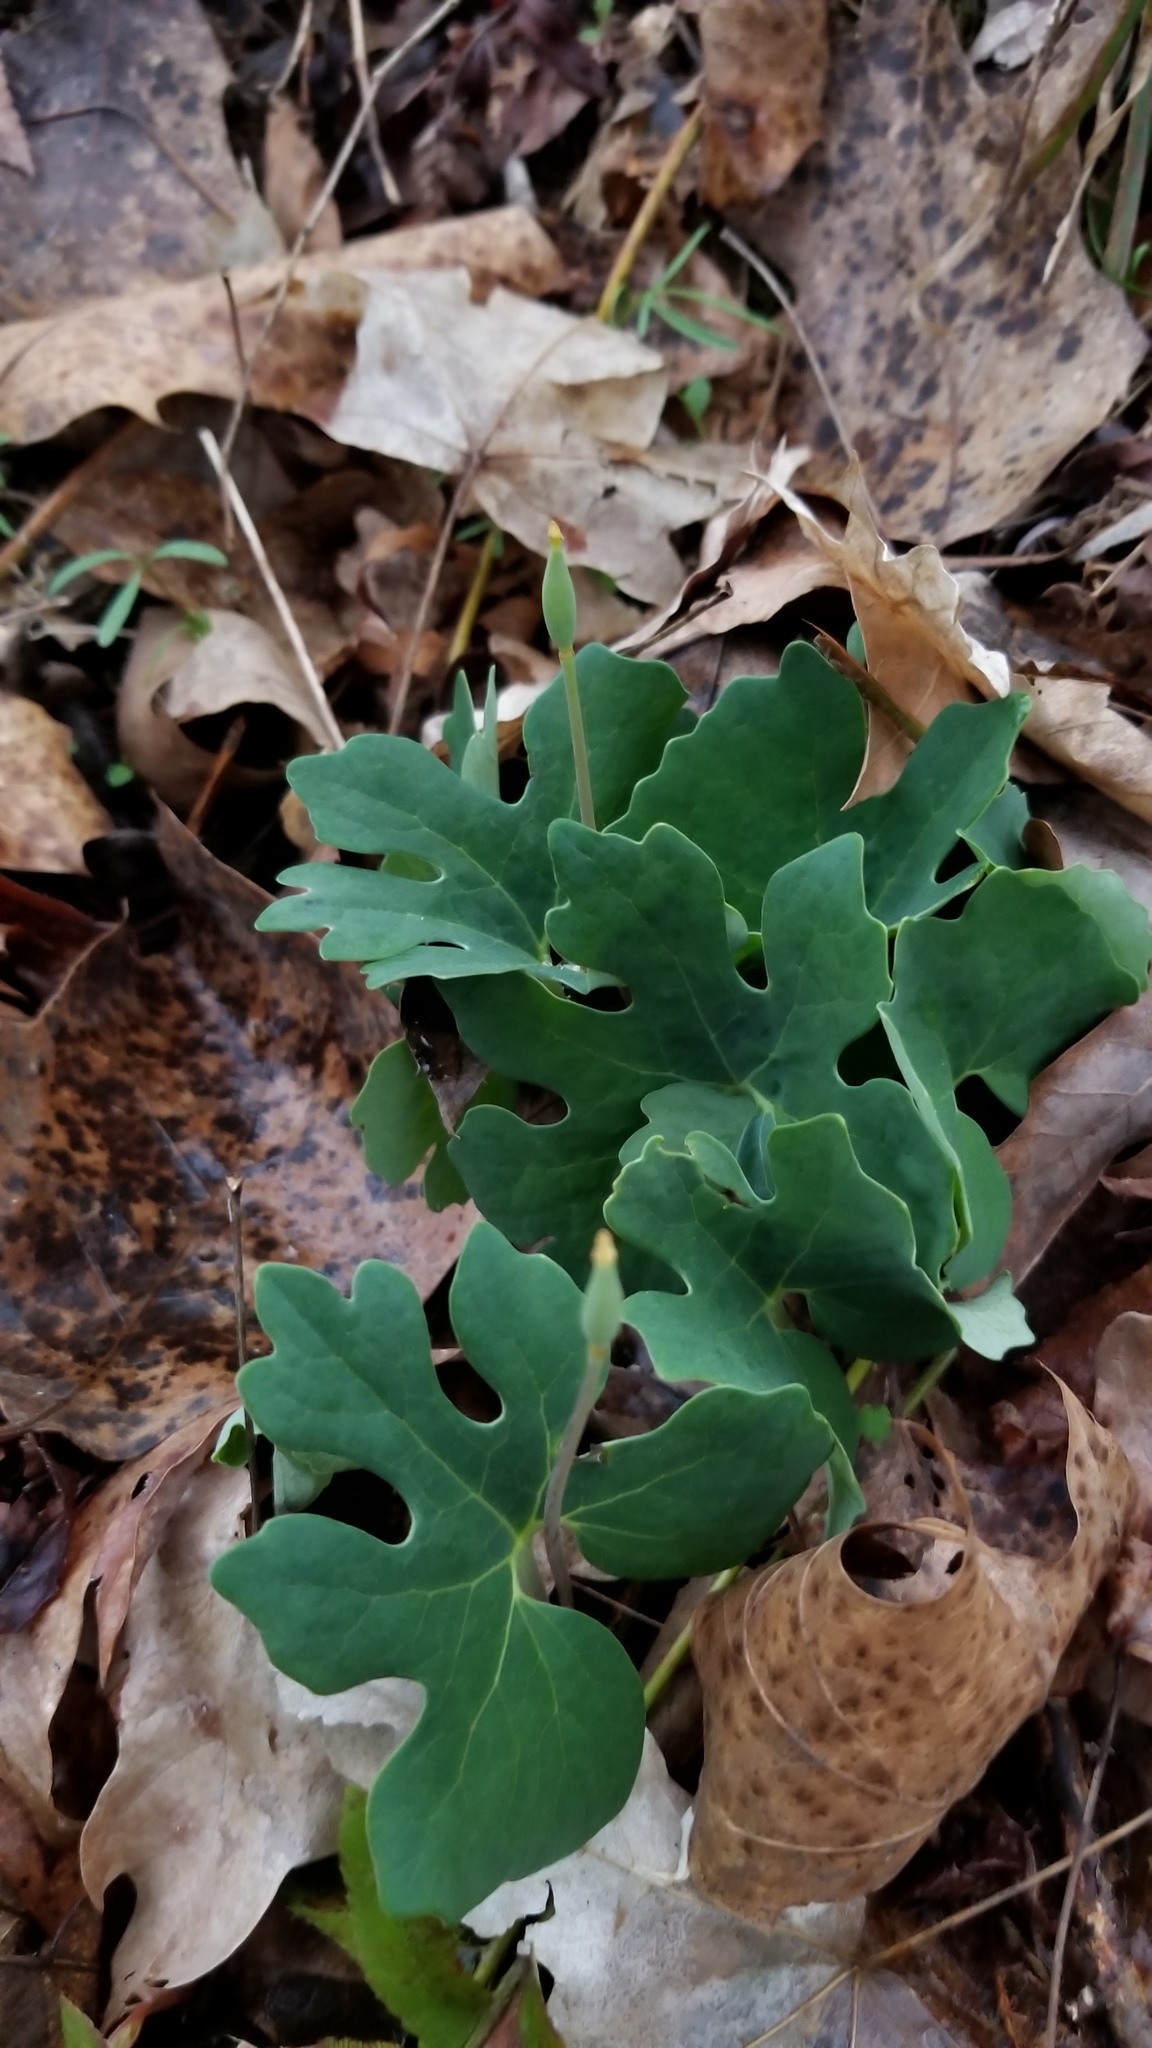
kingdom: Plantae
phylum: Tracheophyta
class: Magnoliopsida
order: Ranunculales
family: Papaveraceae
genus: Sanguinaria
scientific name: Sanguinaria canadensis
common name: Bloodroot
